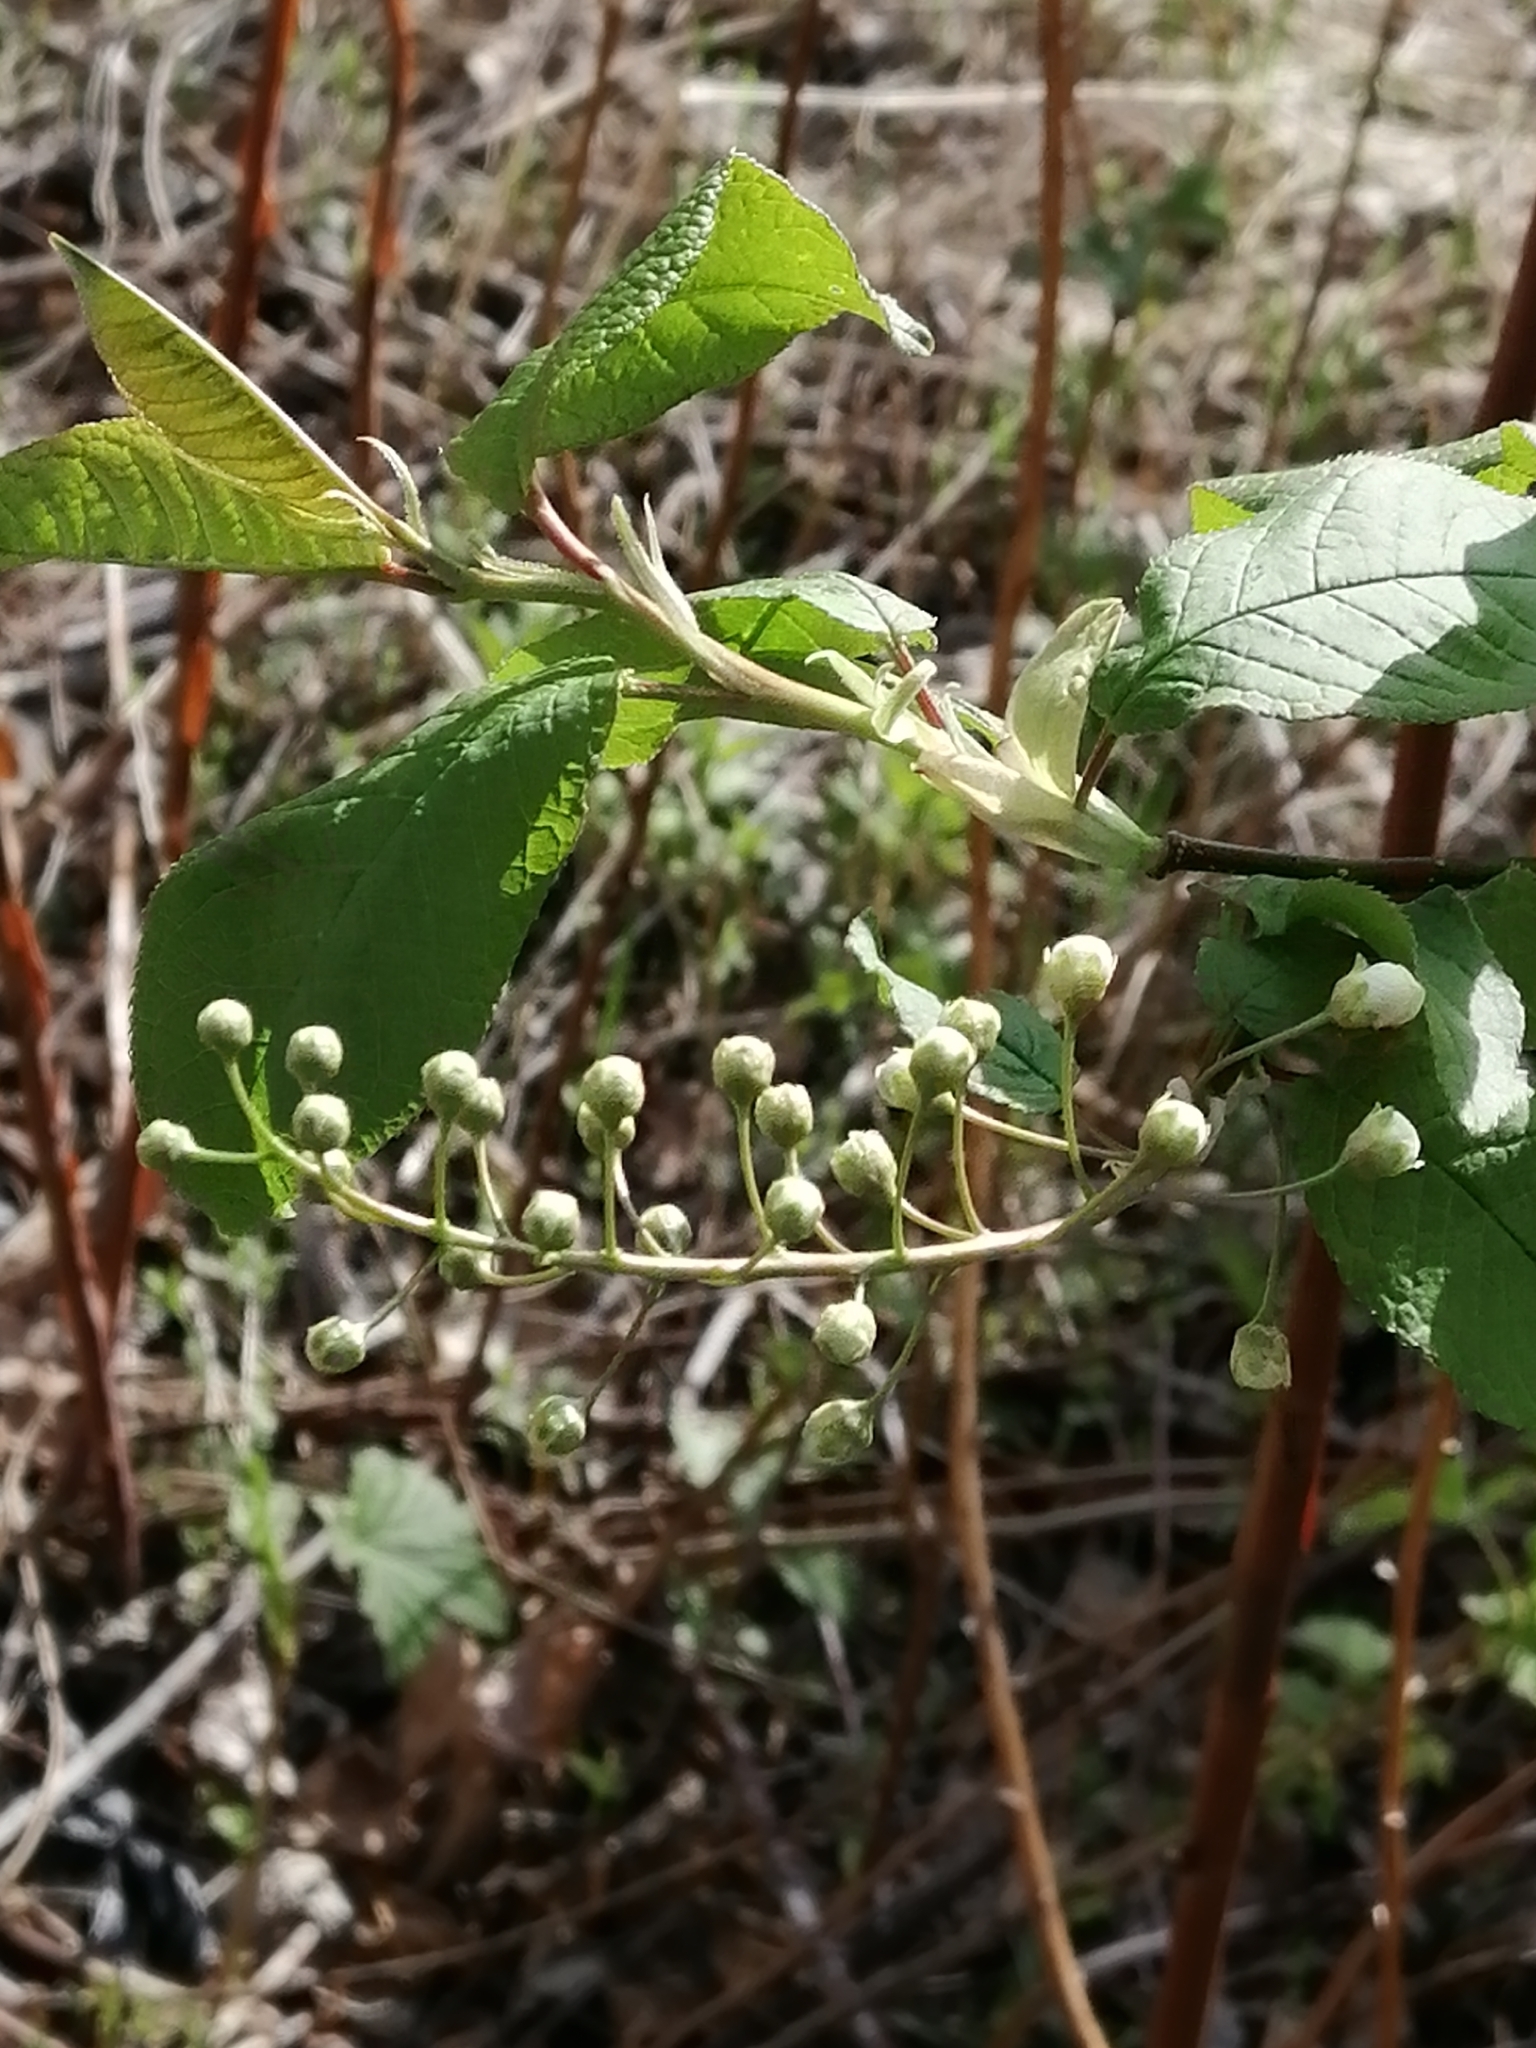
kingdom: Plantae
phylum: Tracheophyta
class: Magnoliopsida
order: Rosales
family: Rosaceae
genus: Prunus
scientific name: Prunus padus
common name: Bird cherry
